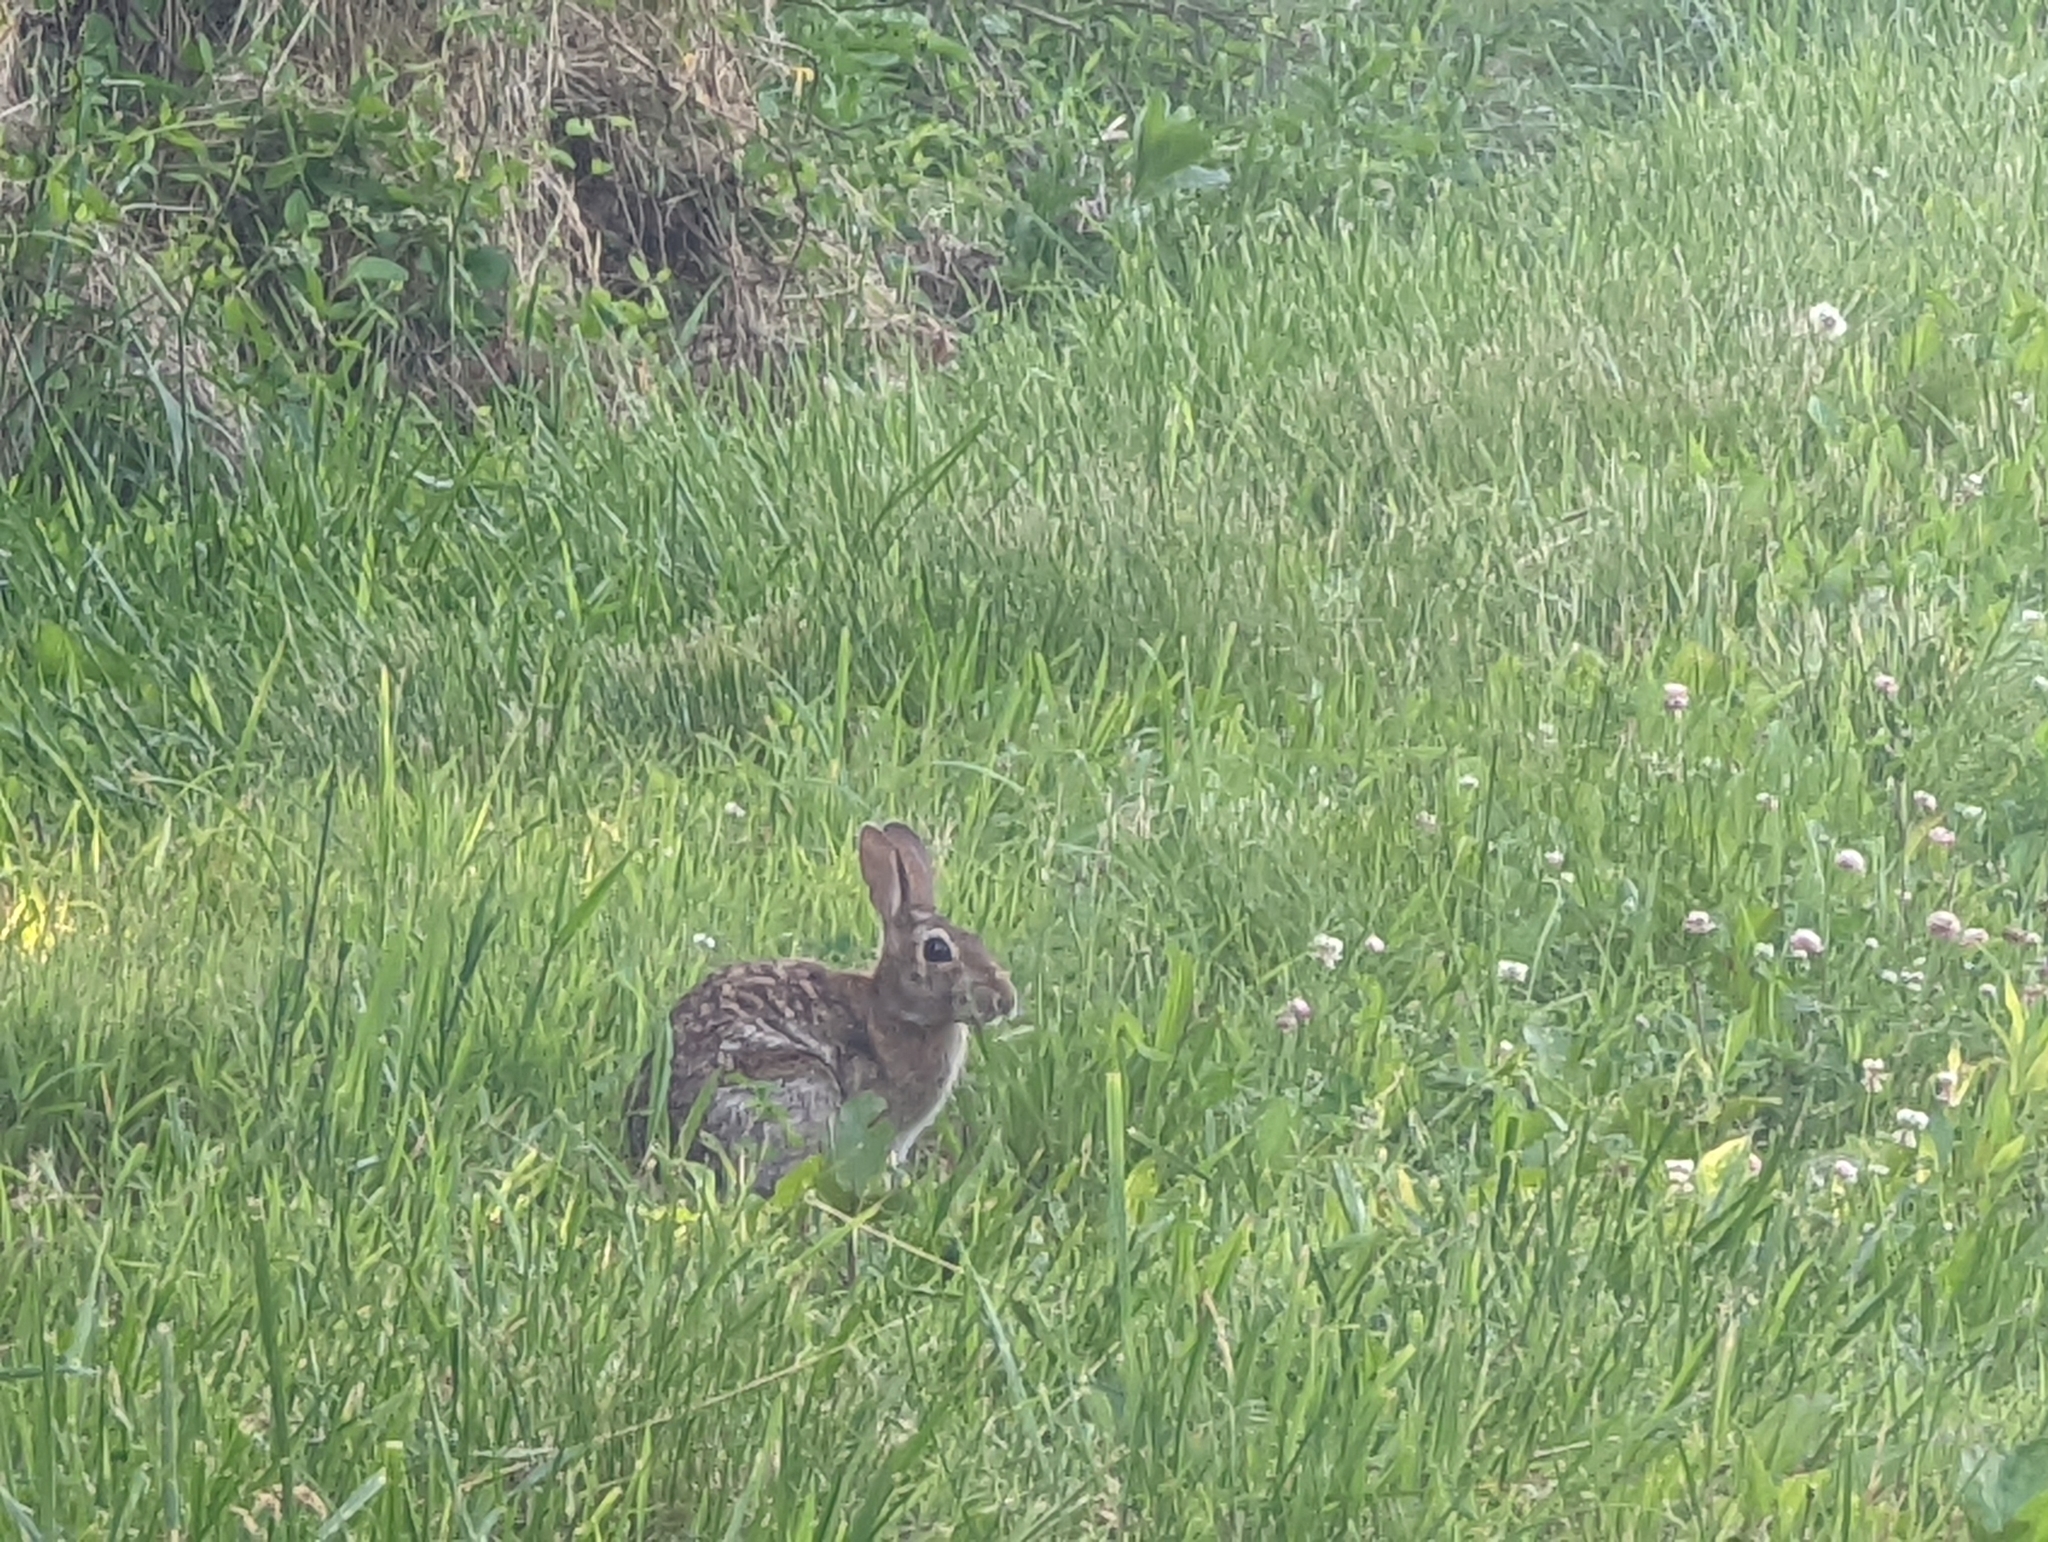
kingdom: Animalia
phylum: Chordata
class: Mammalia
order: Lagomorpha
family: Leporidae
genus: Sylvilagus
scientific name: Sylvilagus floridanus
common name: Eastern cottontail
